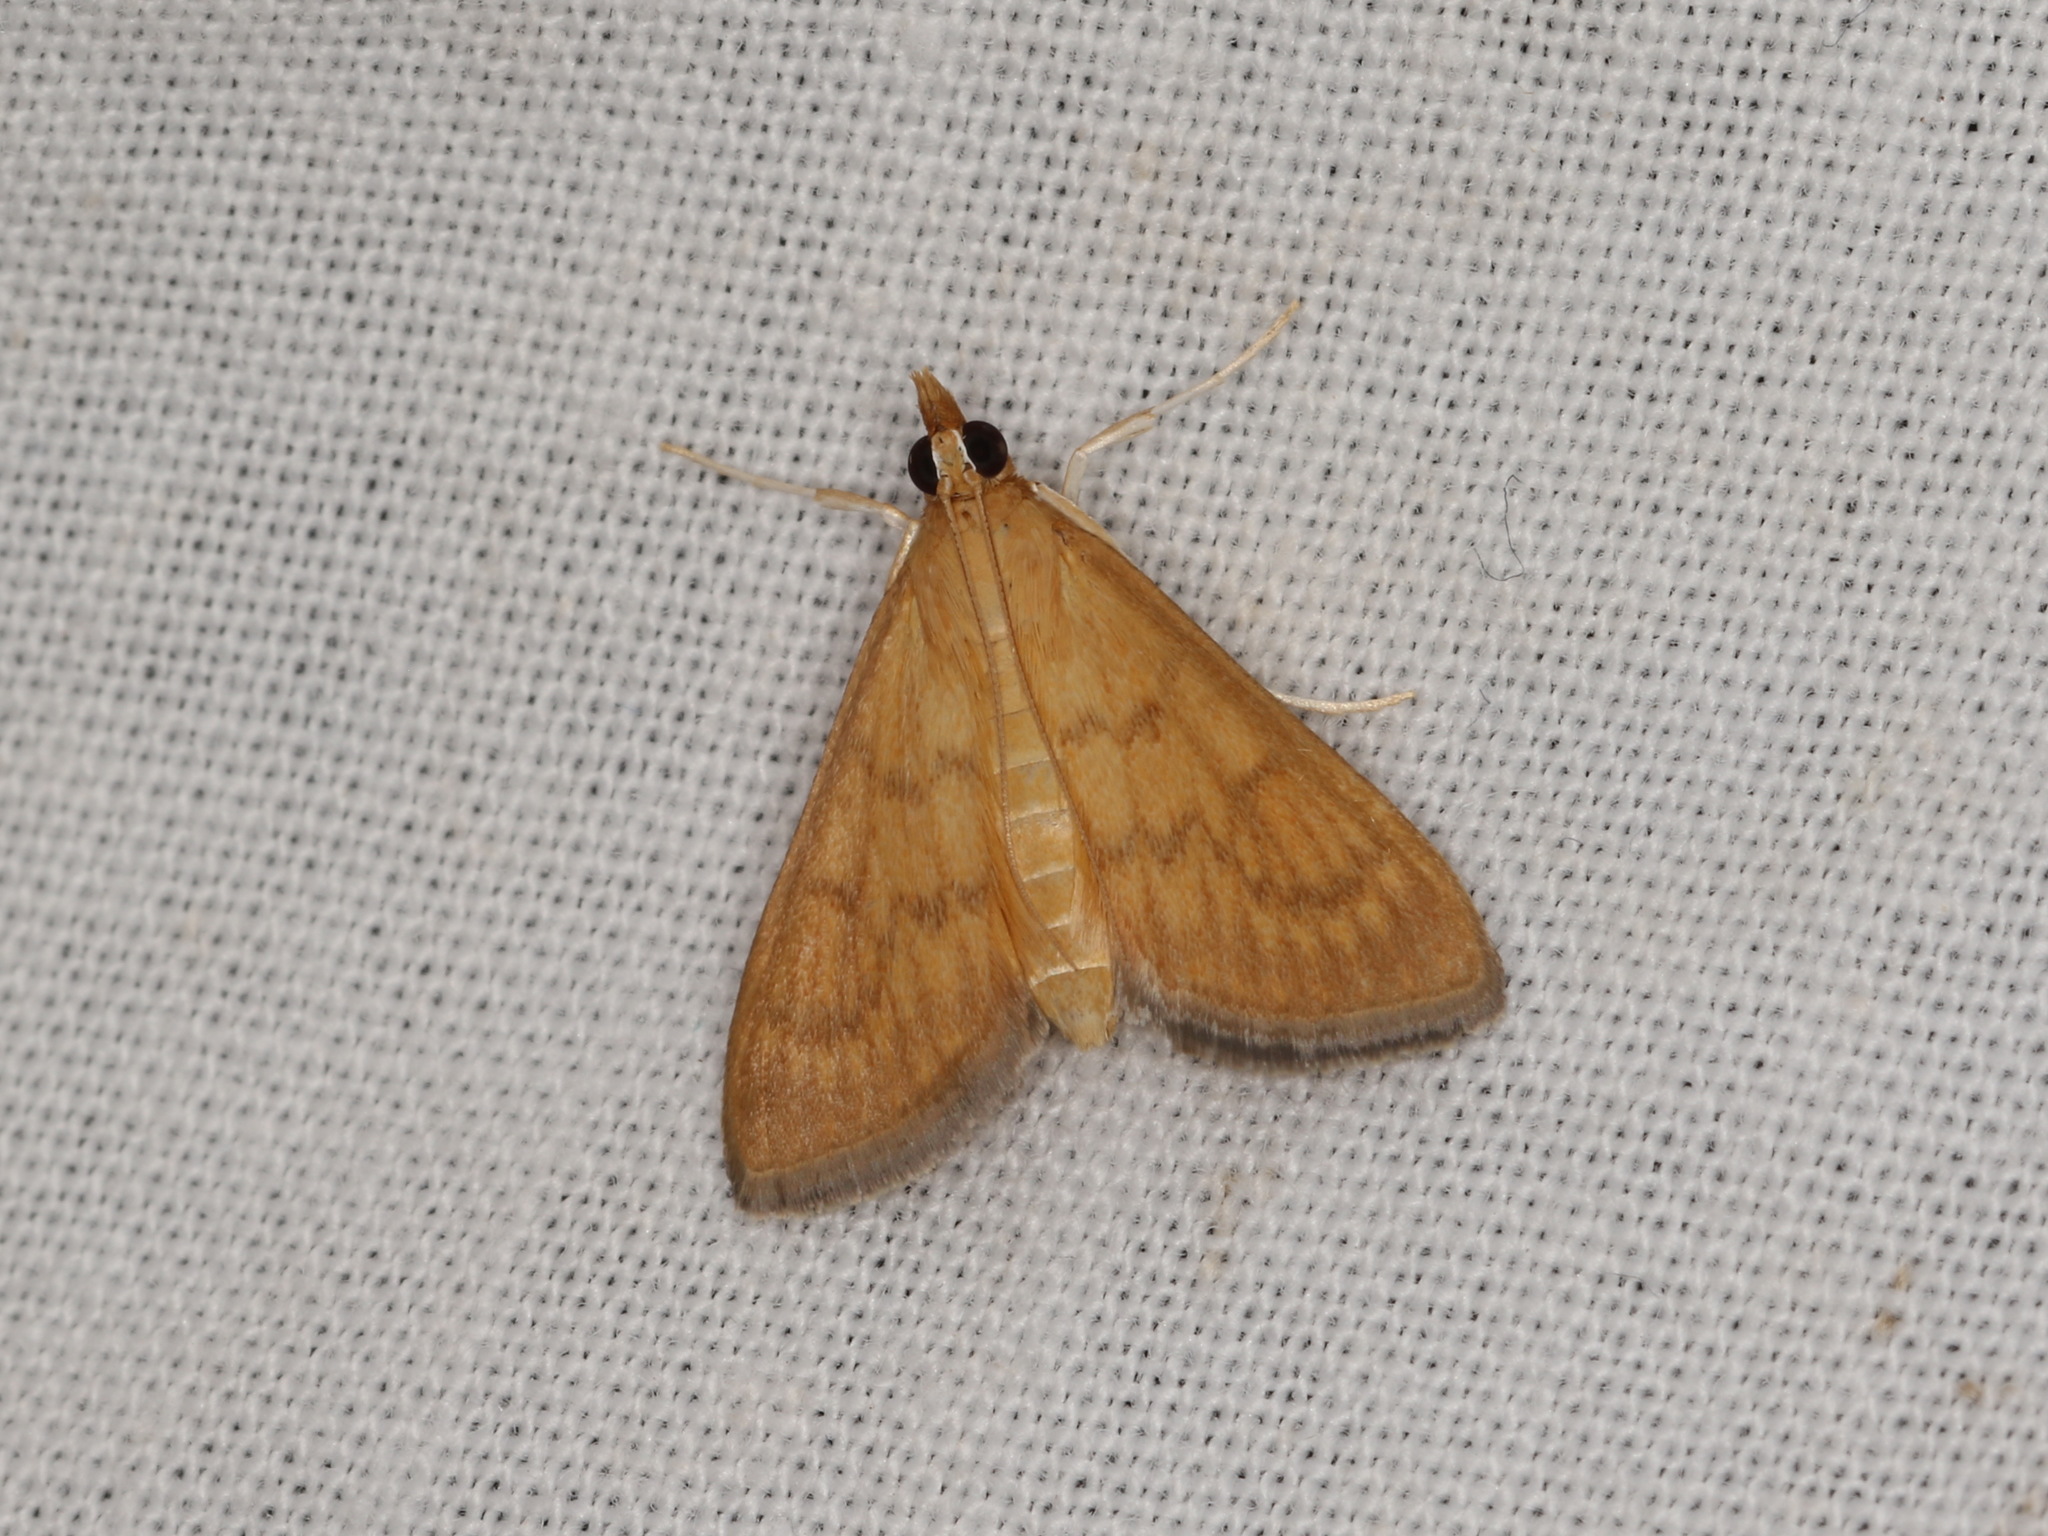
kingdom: Animalia
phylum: Arthropoda
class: Insecta
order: Lepidoptera
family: Crambidae
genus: Ecpyrrhorrhoe
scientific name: Ecpyrrhorrhoe
